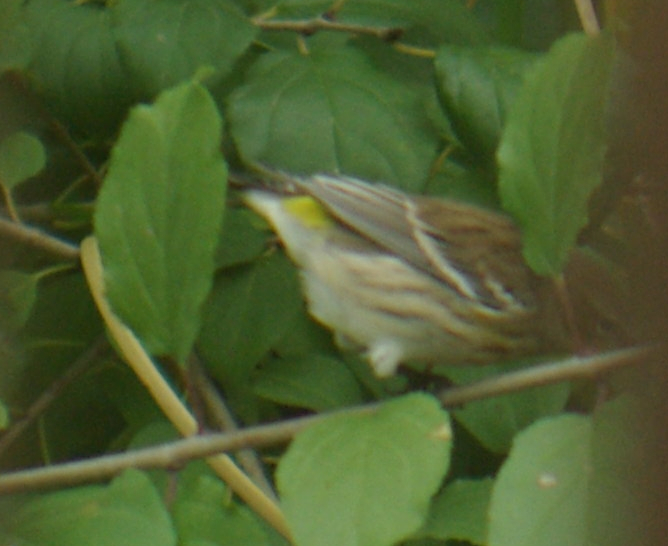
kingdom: Animalia
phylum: Chordata
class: Aves
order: Passeriformes
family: Parulidae
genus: Setophaga
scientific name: Setophaga coronata
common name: Myrtle warbler
